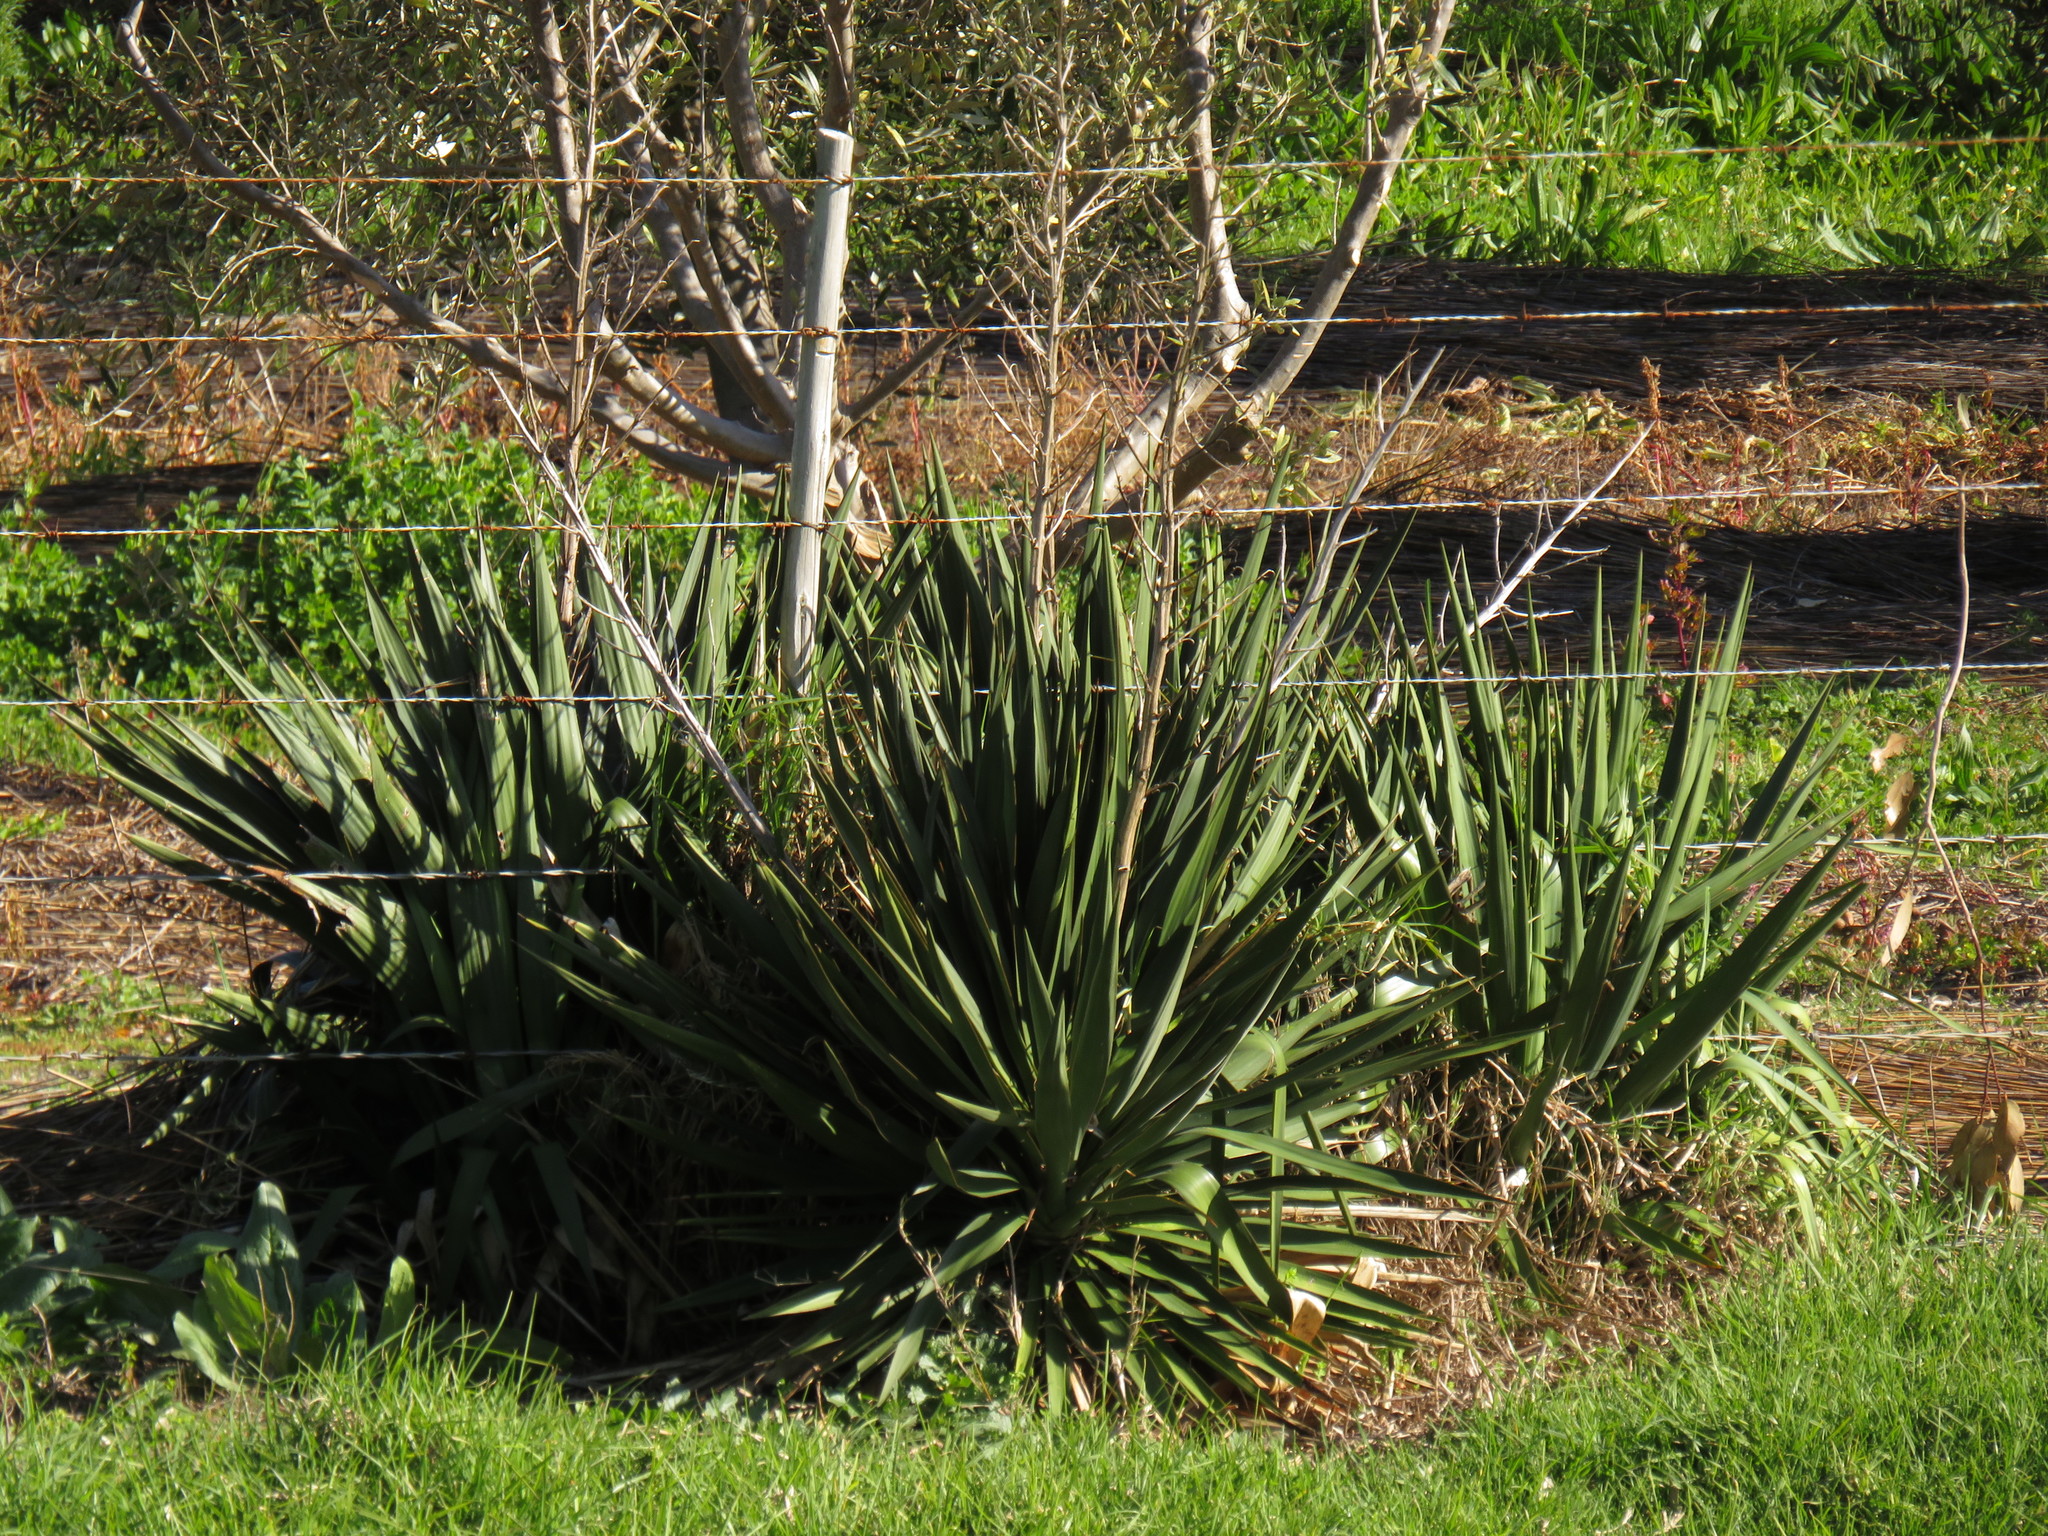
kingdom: Plantae
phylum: Tracheophyta
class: Liliopsida
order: Asparagales
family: Asparagaceae
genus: Yucca
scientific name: Yucca gloriosa
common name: Spanish-dagger
